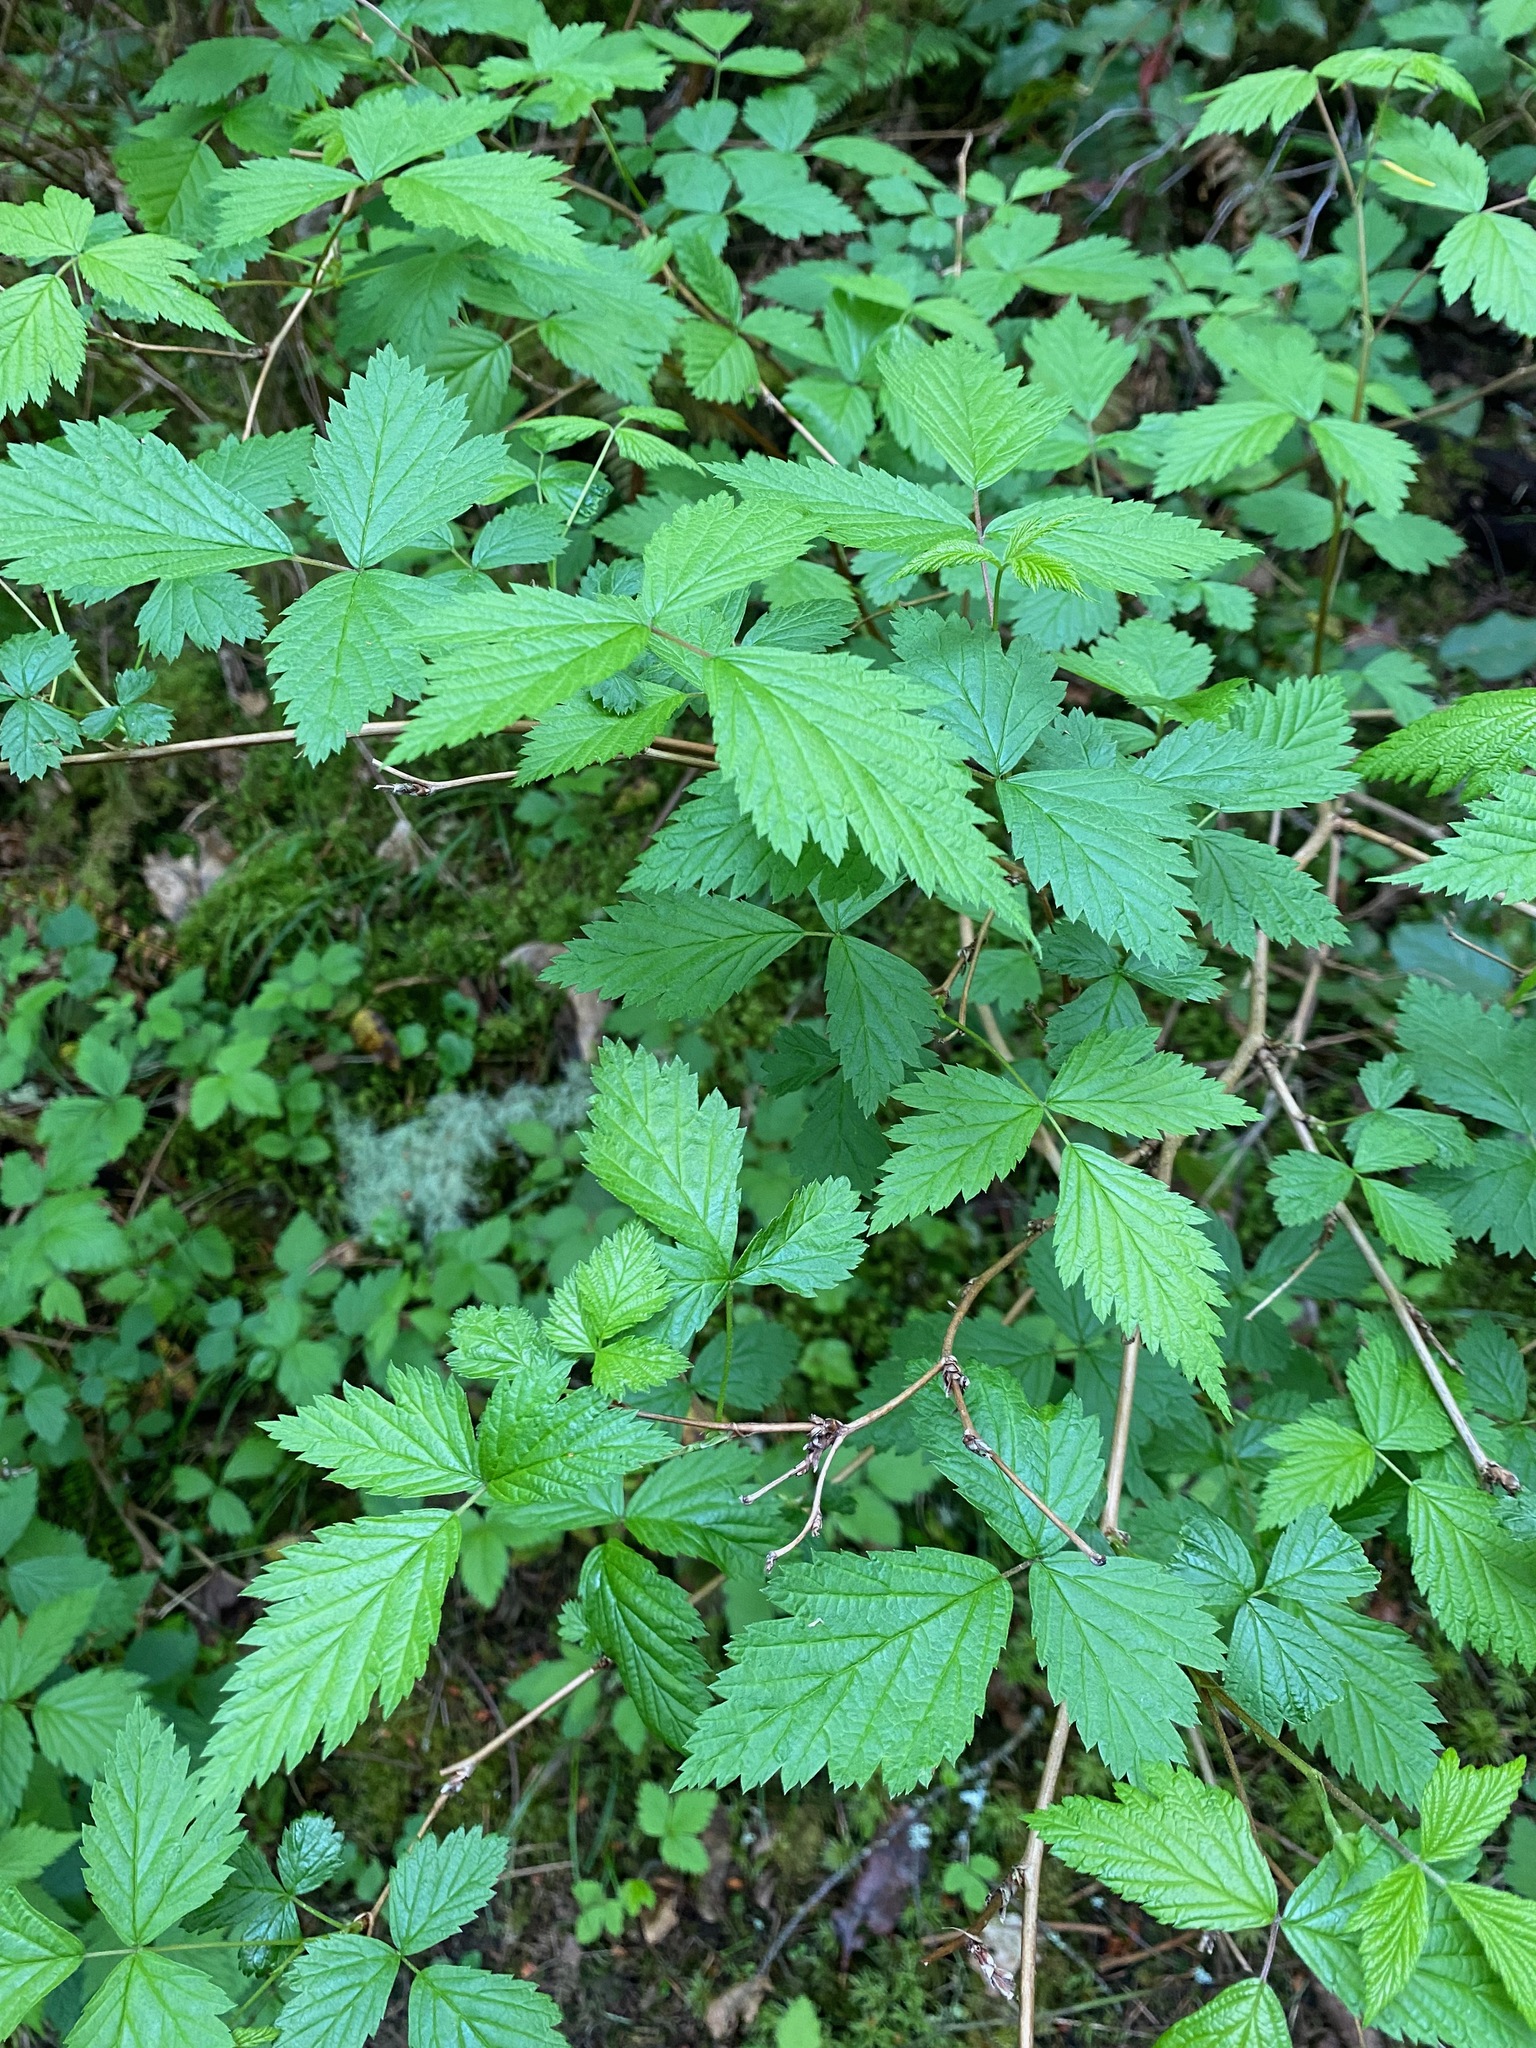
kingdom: Plantae
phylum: Tracheophyta
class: Magnoliopsida
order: Rosales
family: Rosaceae
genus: Rubus
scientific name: Rubus spectabilis
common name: Salmonberry
